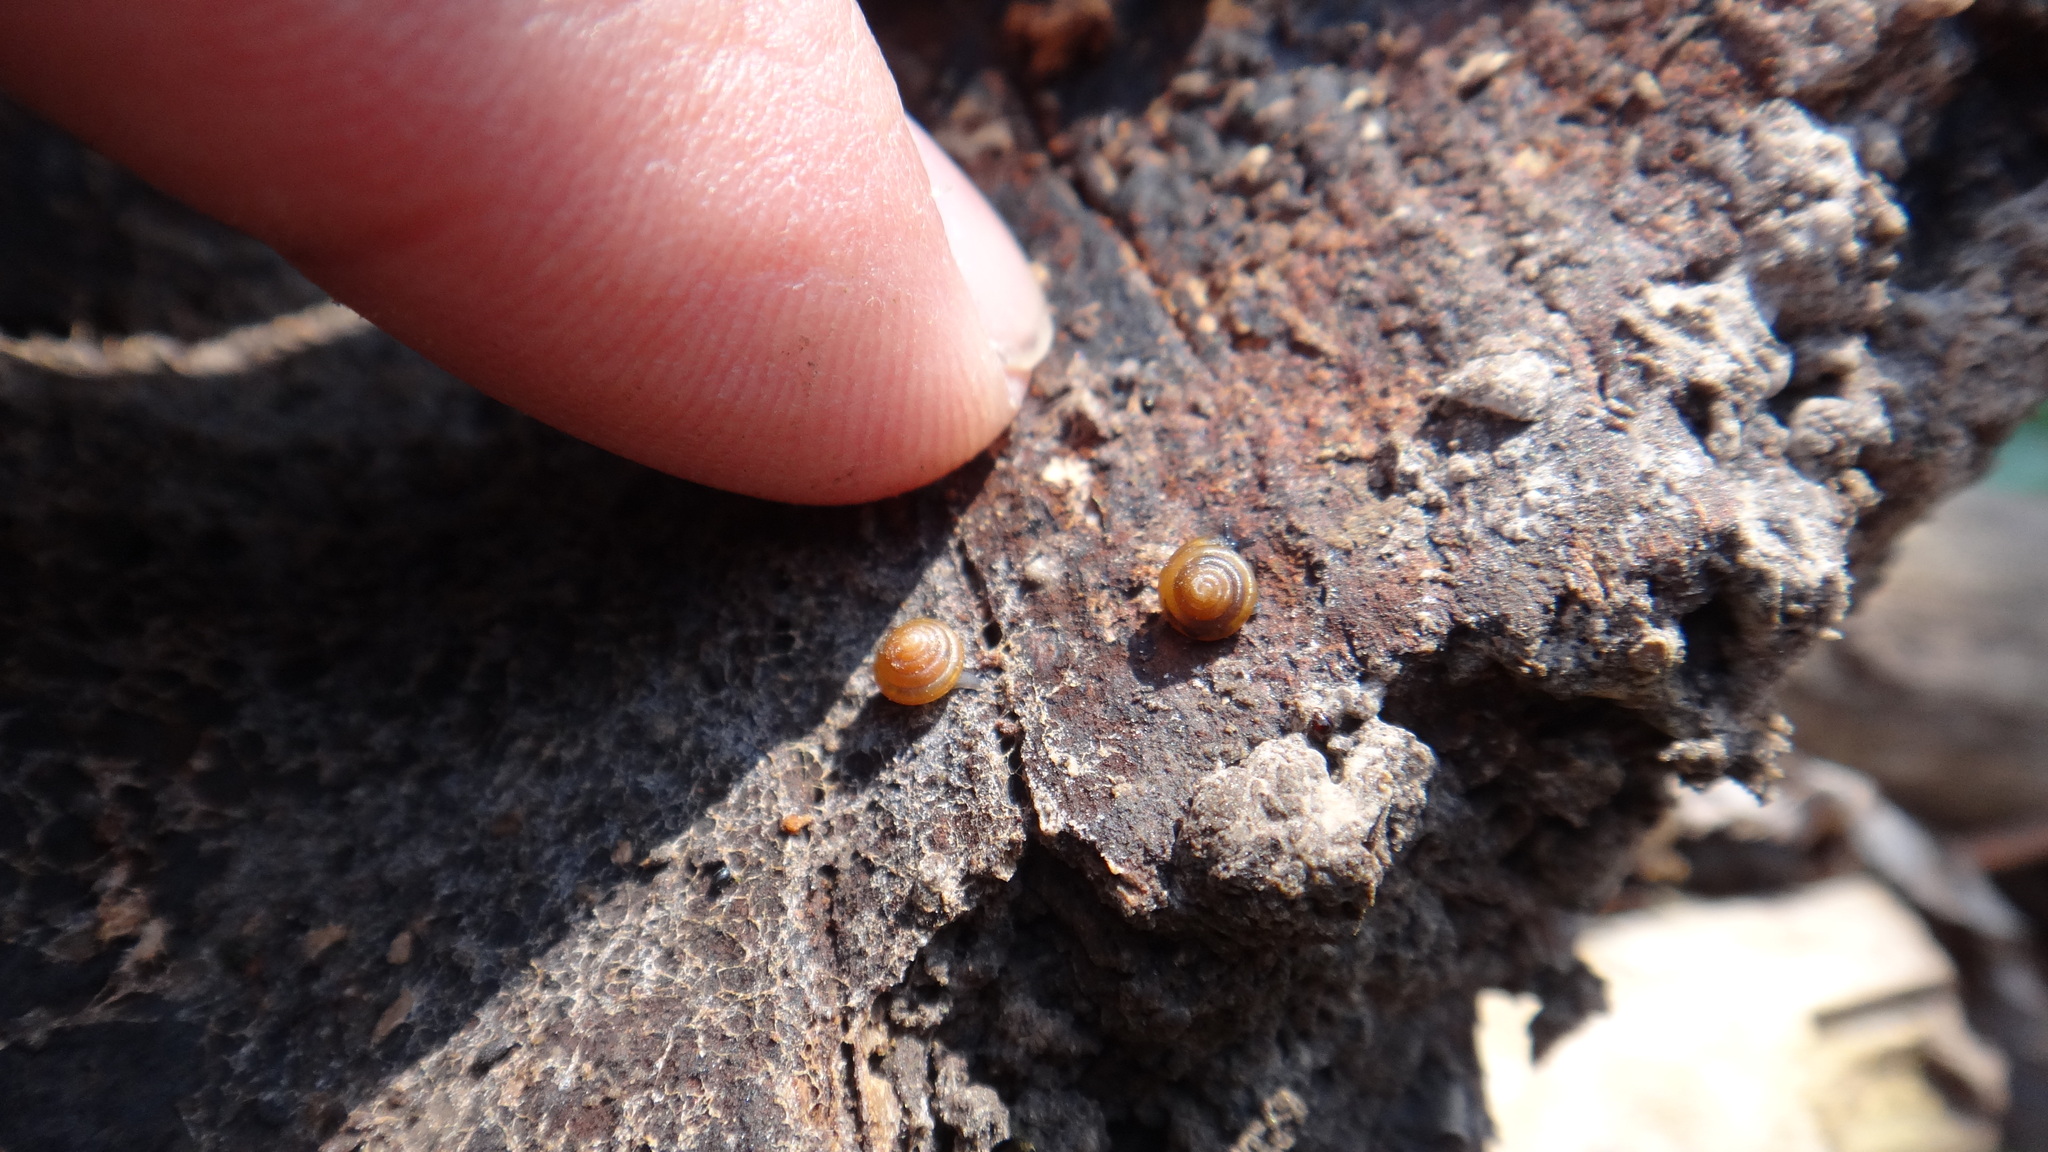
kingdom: Animalia
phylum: Mollusca
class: Gastropoda
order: Stylommatophora
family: Euconulidae
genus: Euconulus
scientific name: Euconulus fulvus
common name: Tawny glass snail
